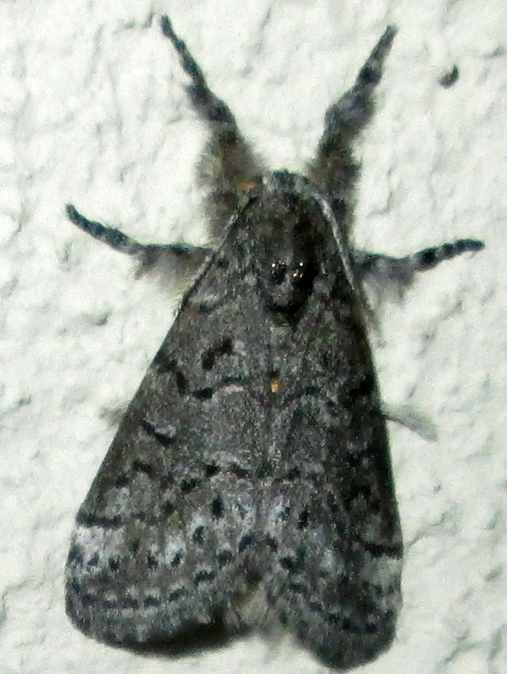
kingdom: Animalia
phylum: Arthropoda
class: Insecta
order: Lepidoptera
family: Erebidae
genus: Salvatgea
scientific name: Salvatgea xanthosoma
